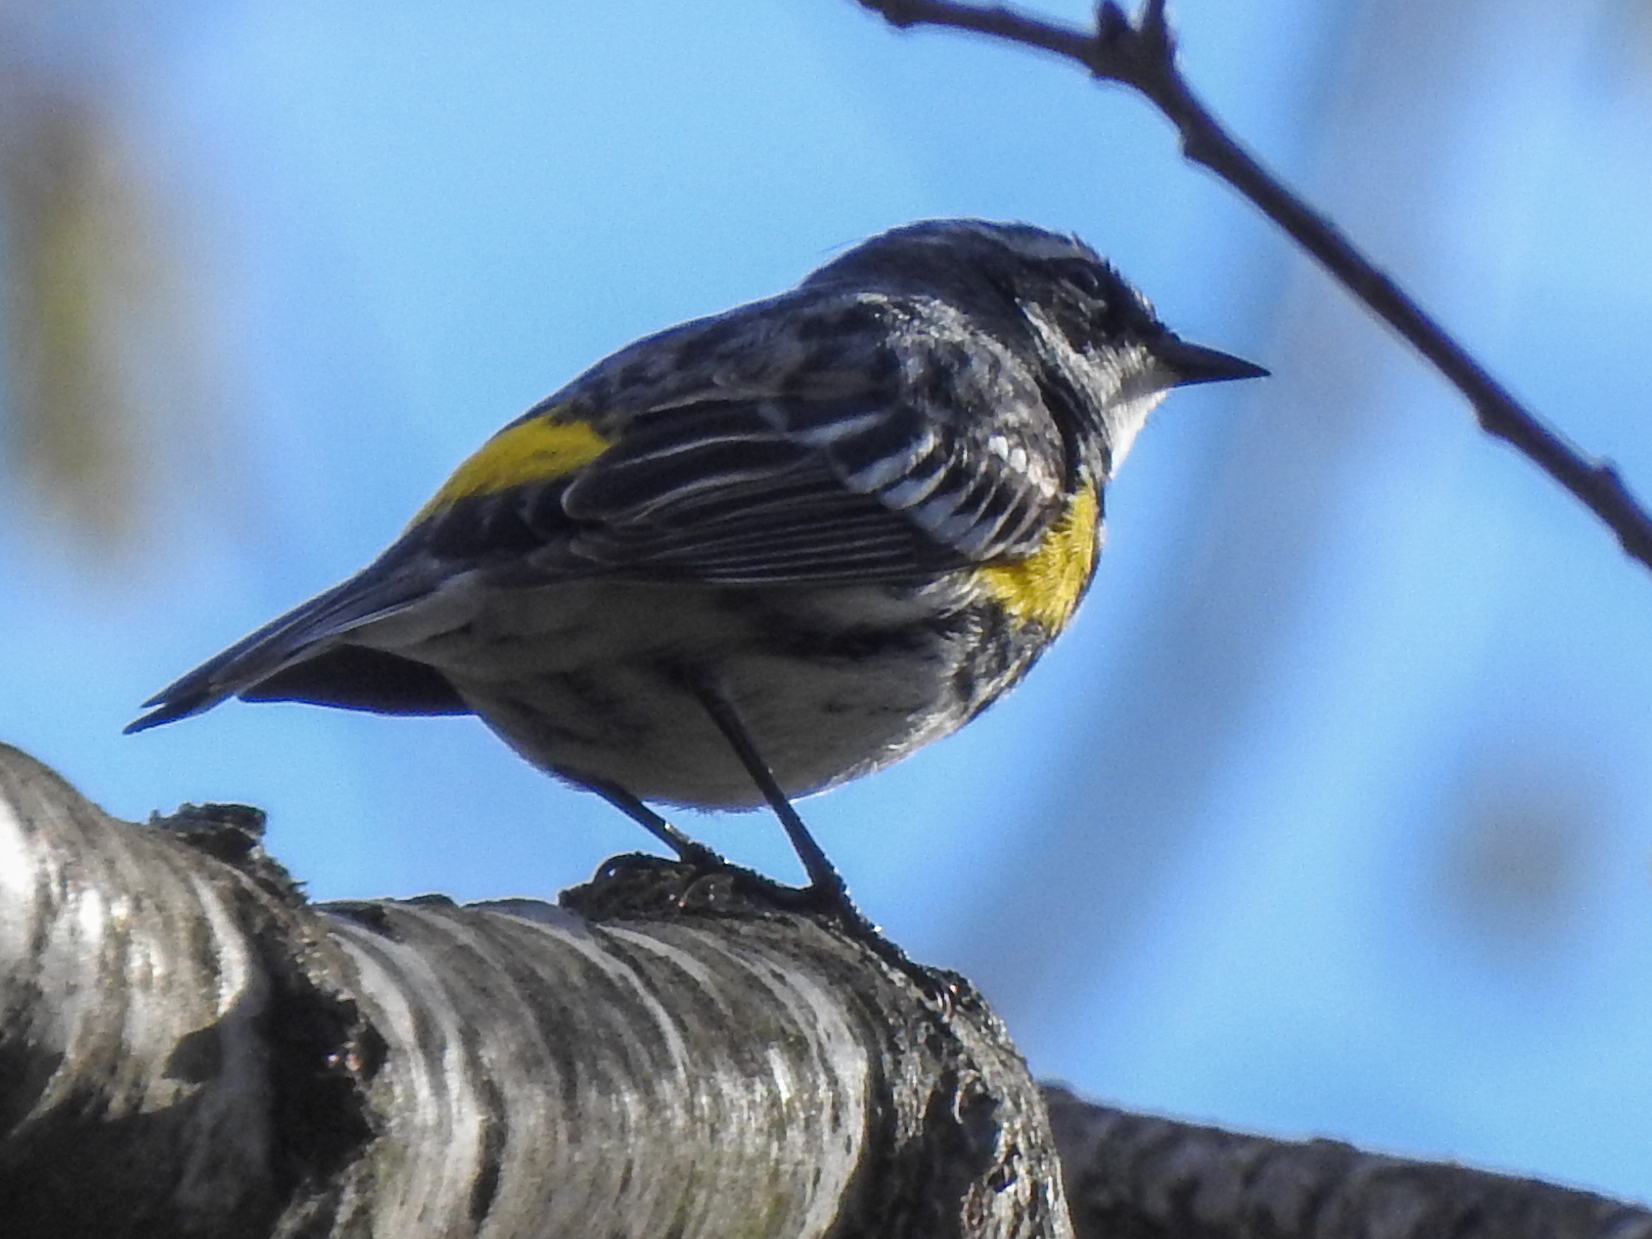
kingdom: Animalia
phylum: Chordata
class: Aves
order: Passeriformes
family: Parulidae
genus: Setophaga
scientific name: Setophaga coronata
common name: Myrtle warbler
